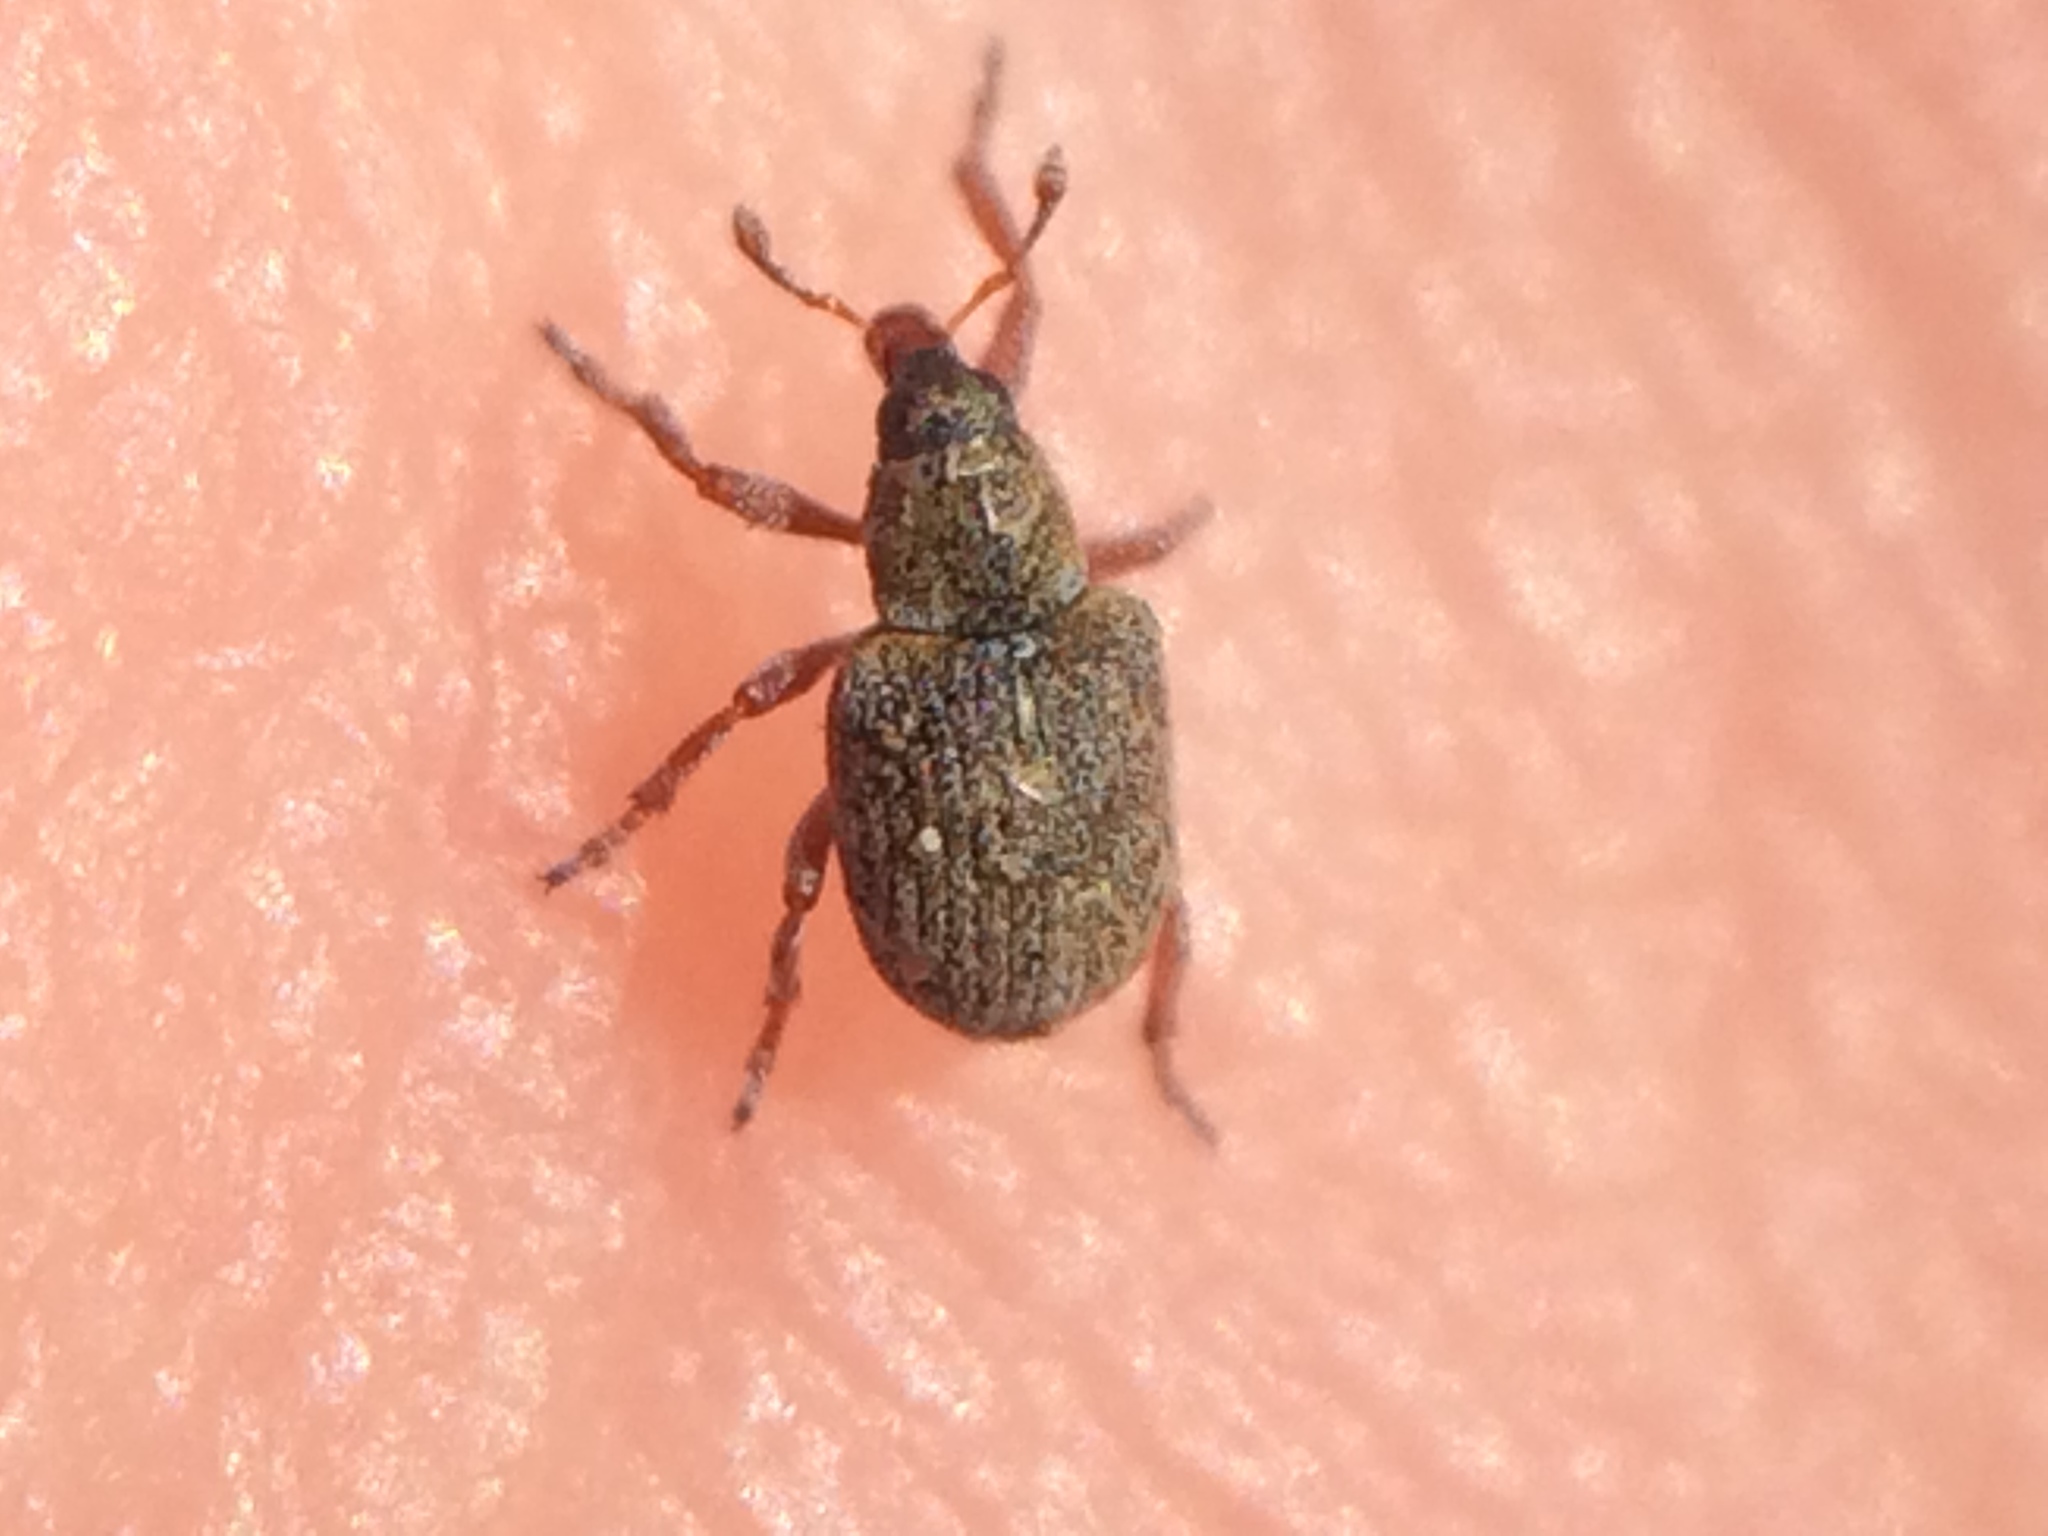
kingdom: Animalia
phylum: Arthropoda
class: Insecta
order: Coleoptera
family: Brachyceridae
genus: Stenopelmus
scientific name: Stenopelmus rufinasus
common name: Azolla weevil
